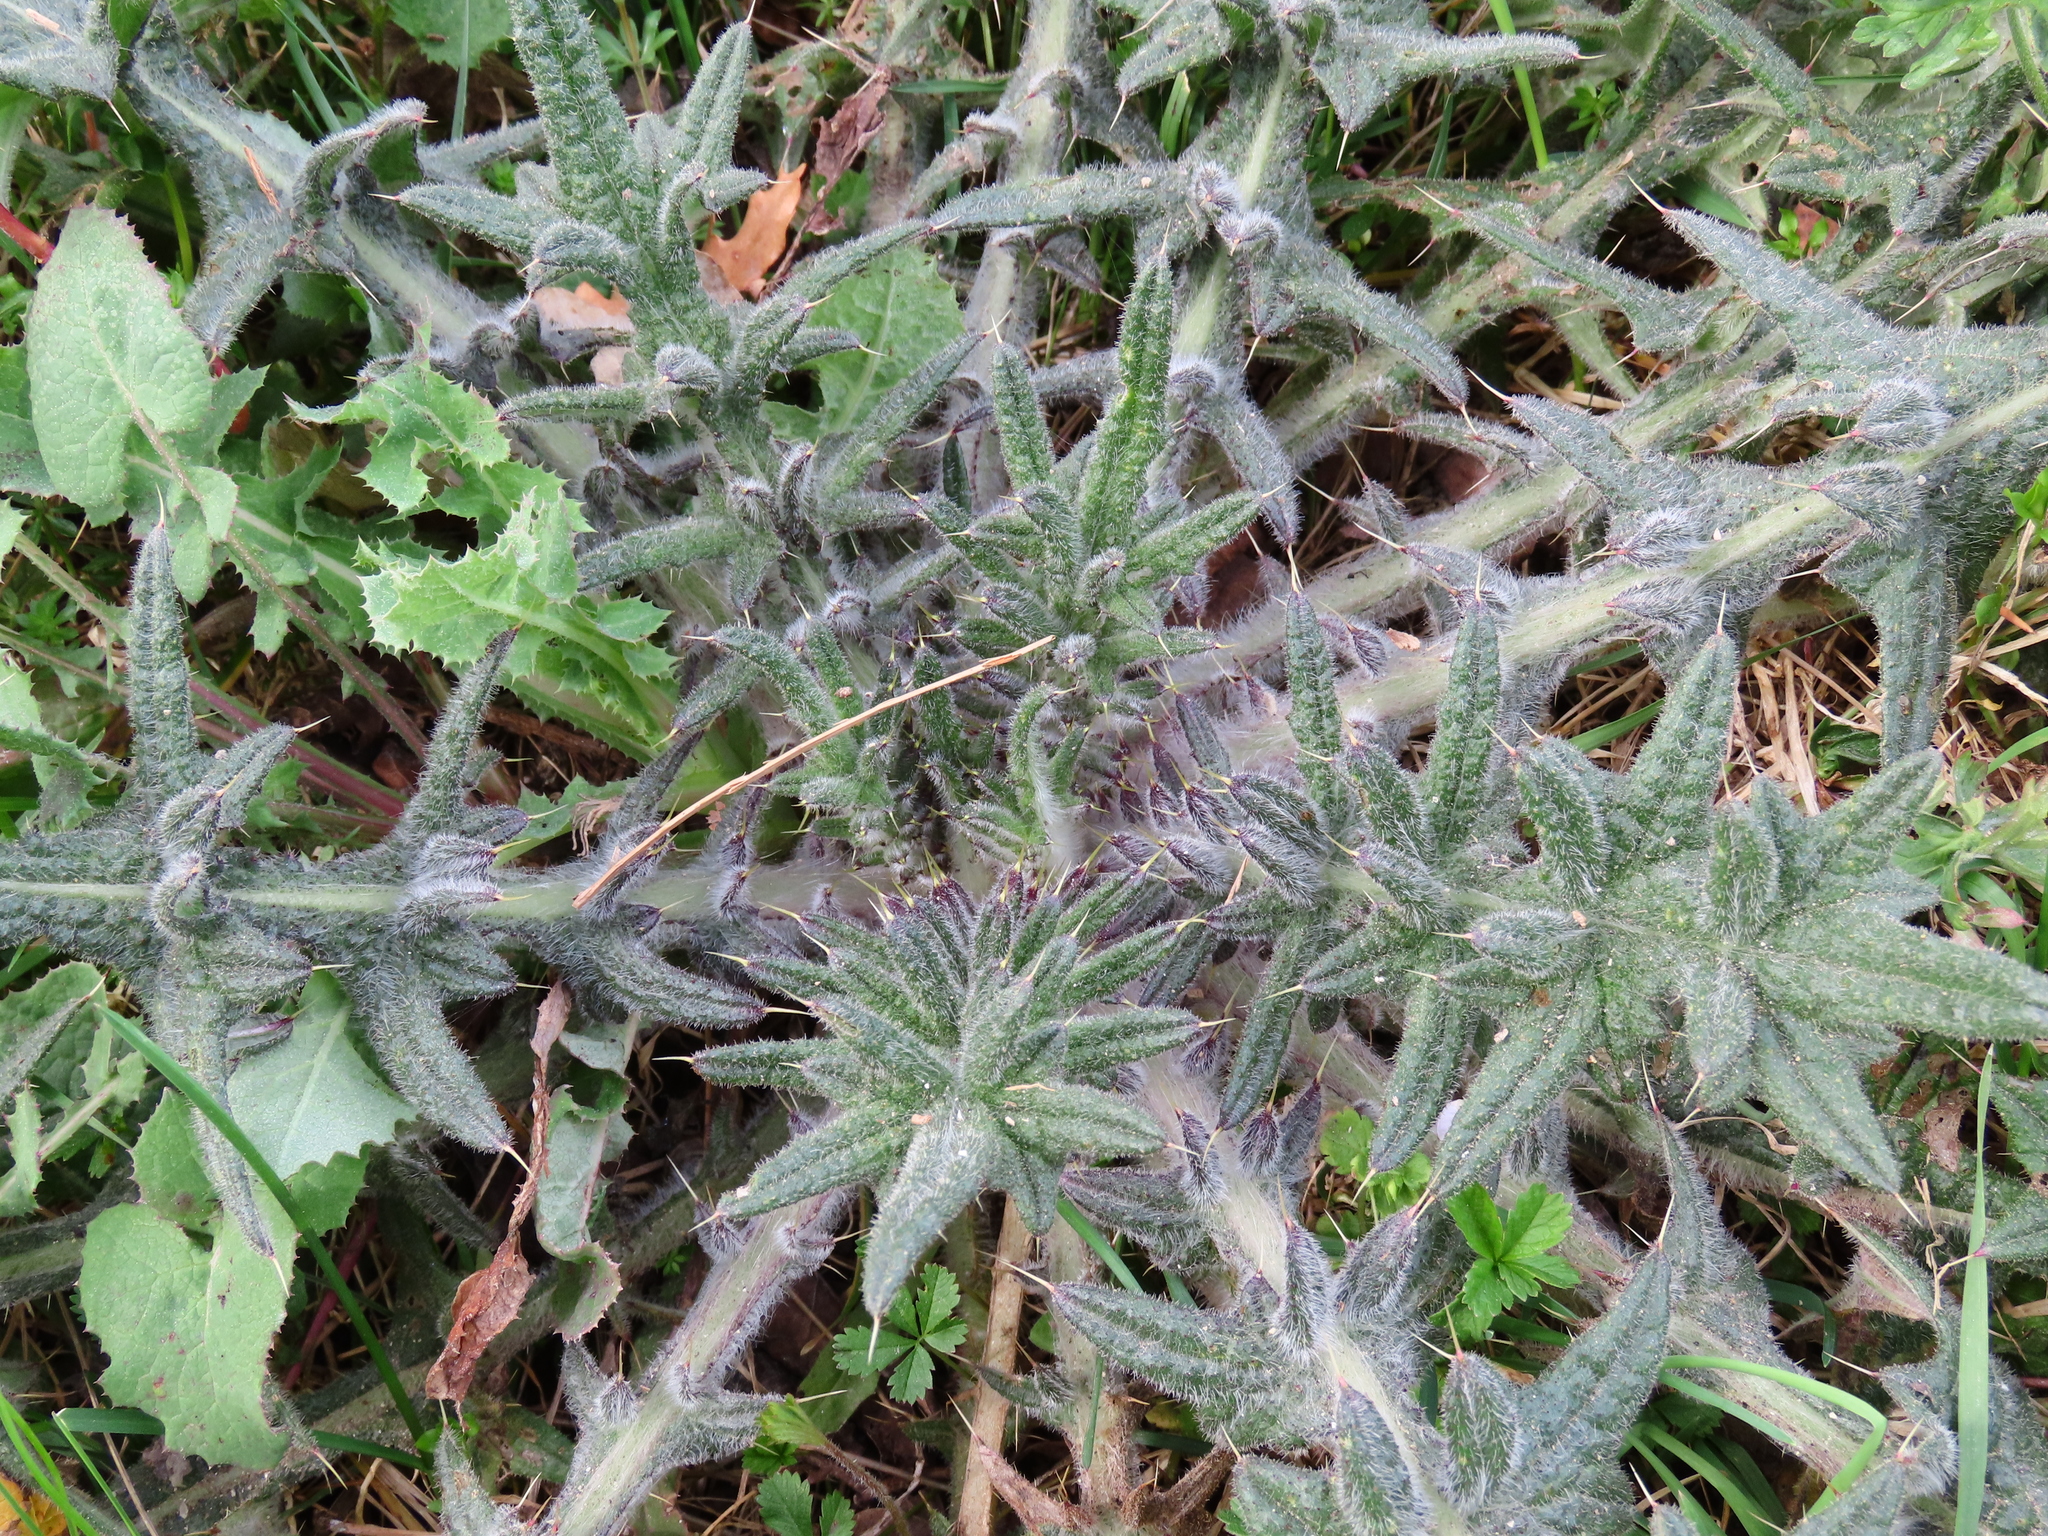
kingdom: Plantae
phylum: Tracheophyta
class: Magnoliopsida
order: Asterales
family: Asteraceae
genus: Cirsium
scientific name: Cirsium vulgare
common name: Bull thistle
